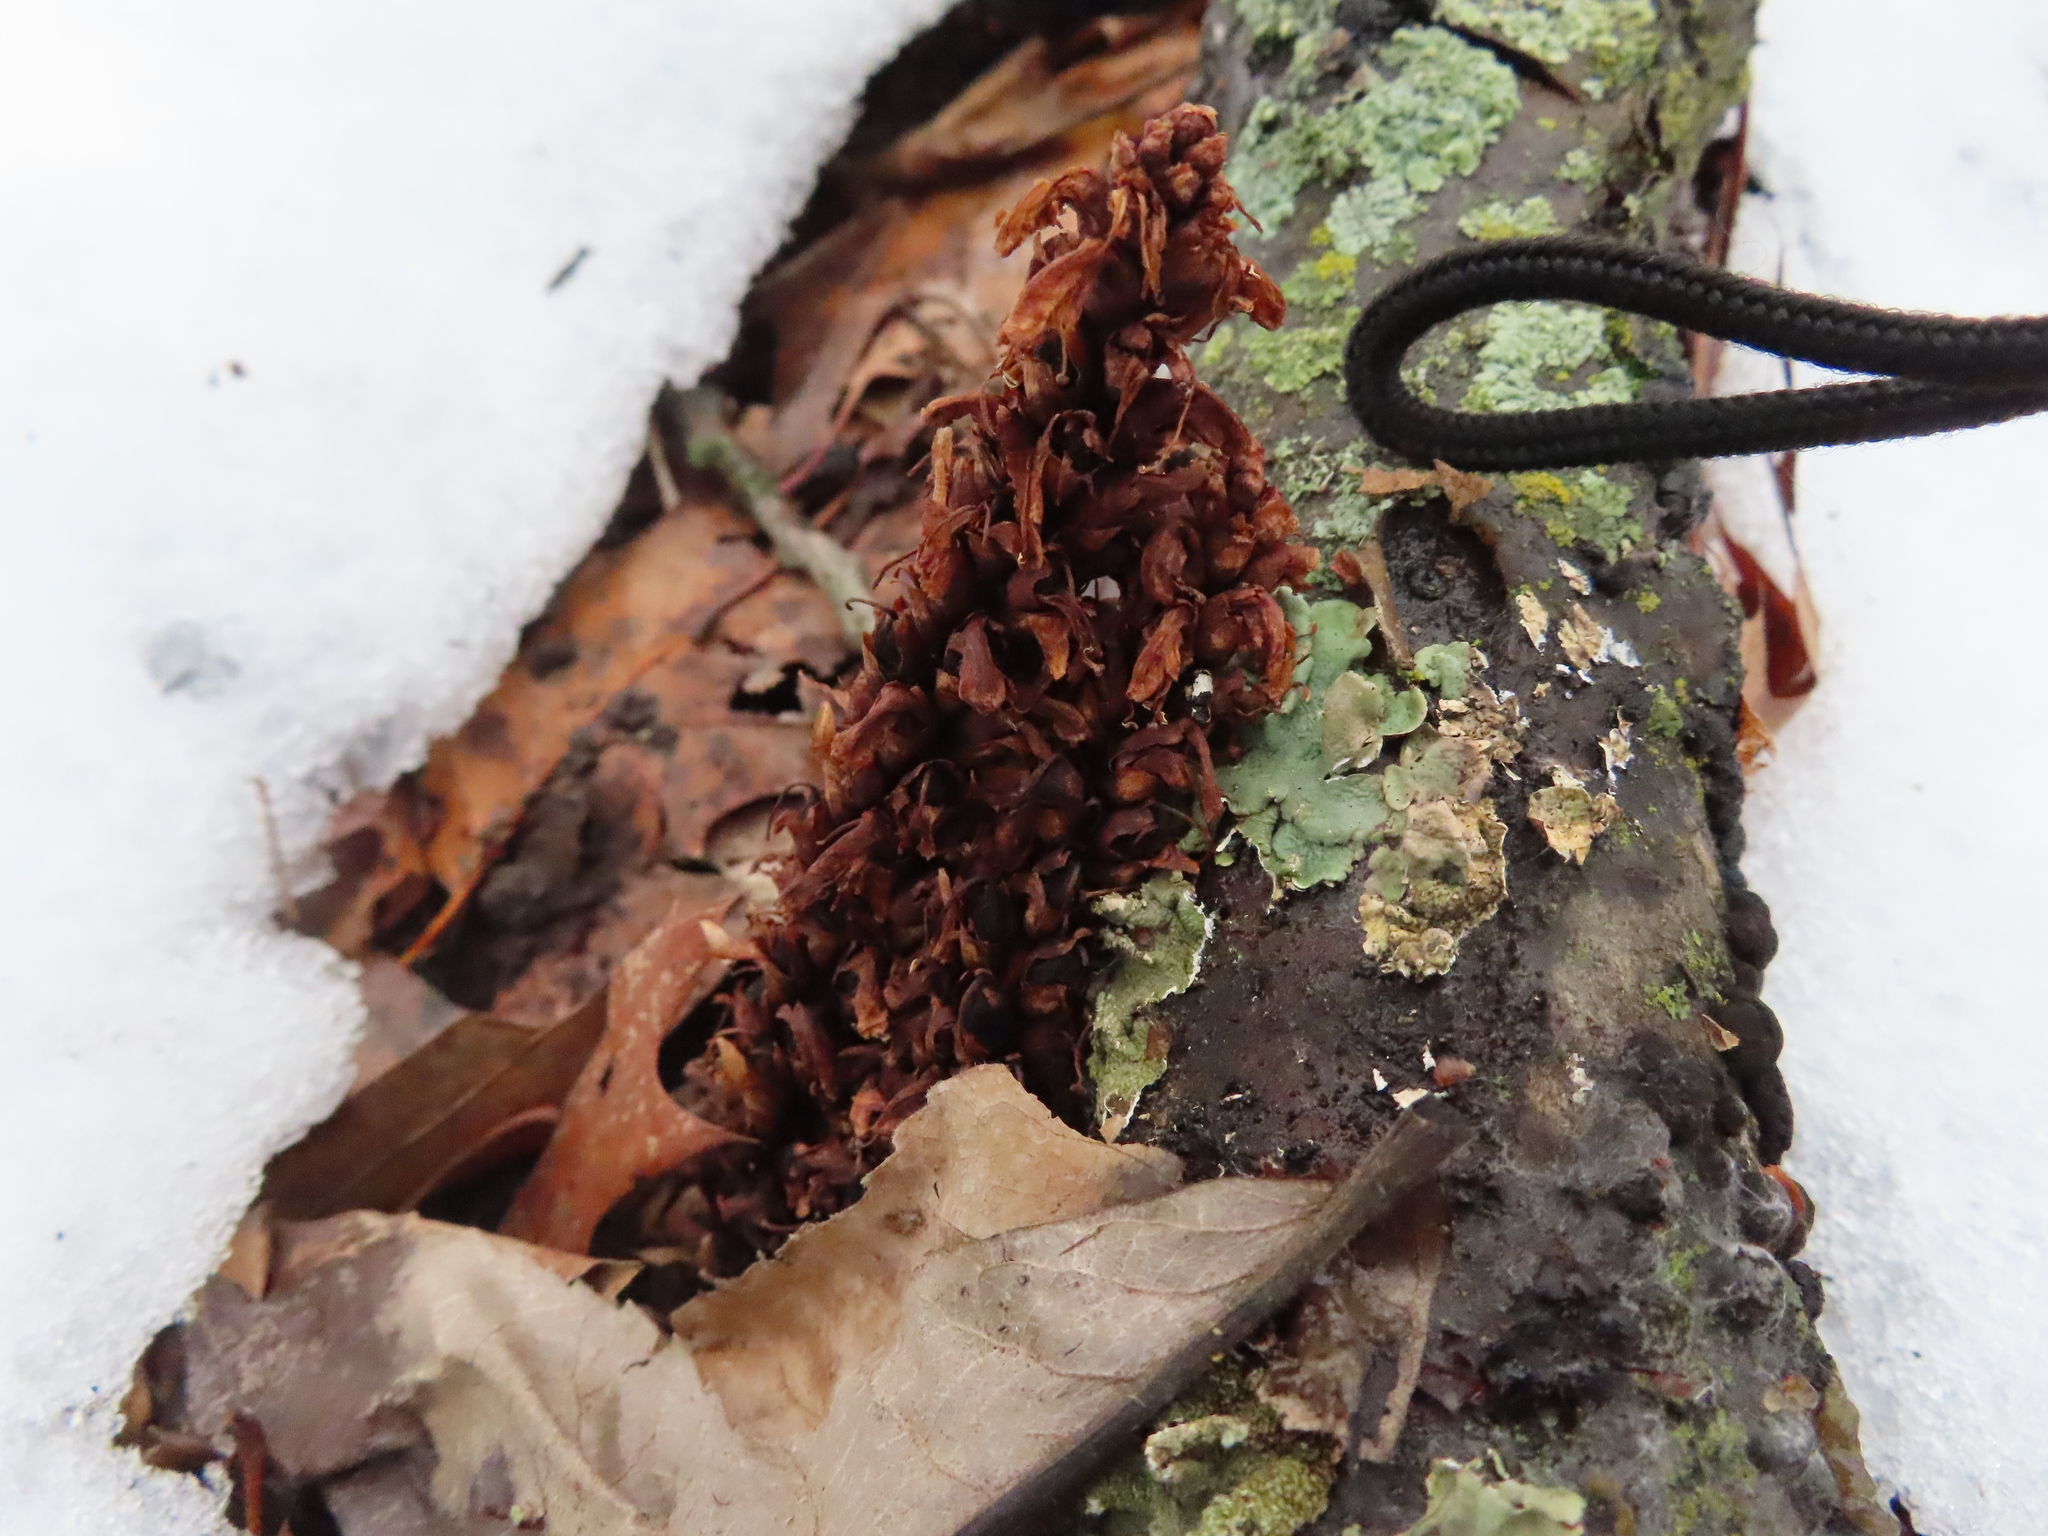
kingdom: Plantae
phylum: Tracheophyta
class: Magnoliopsida
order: Lamiales
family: Orobanchaceae
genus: Conopholis
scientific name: Conopholis americana
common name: American cancer-root
